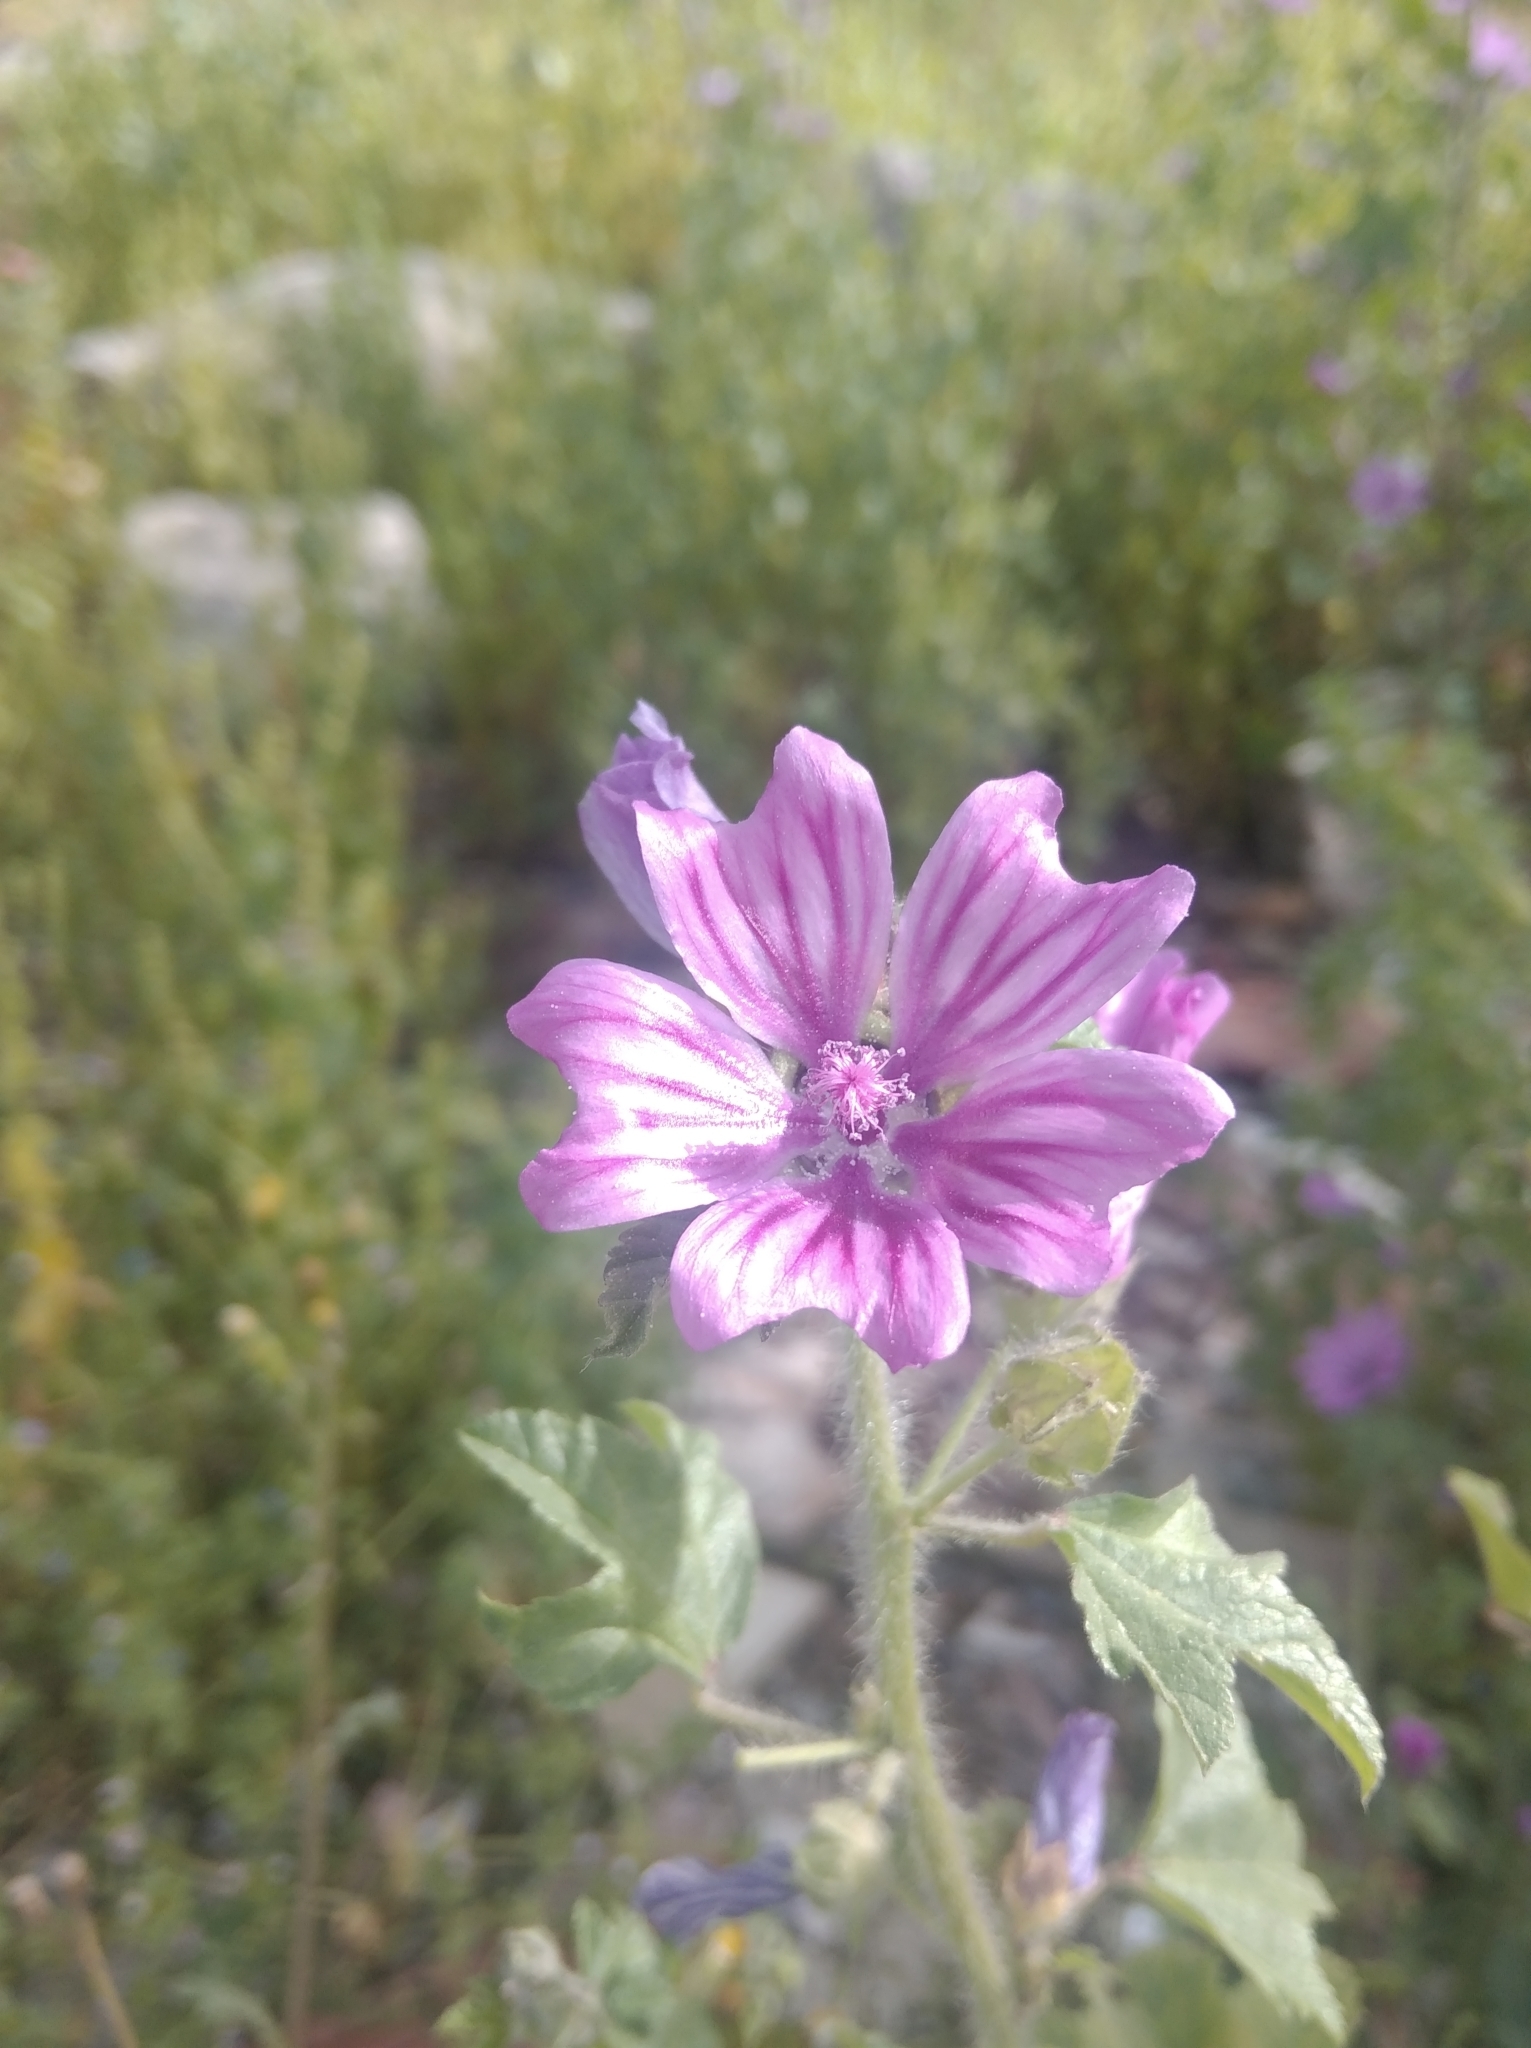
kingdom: Plantae
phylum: Tracheophyta
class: Magnoliopsida
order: Malvales
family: Malvaceae
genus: Malva
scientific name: Malva sylvestris
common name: Common mallow
